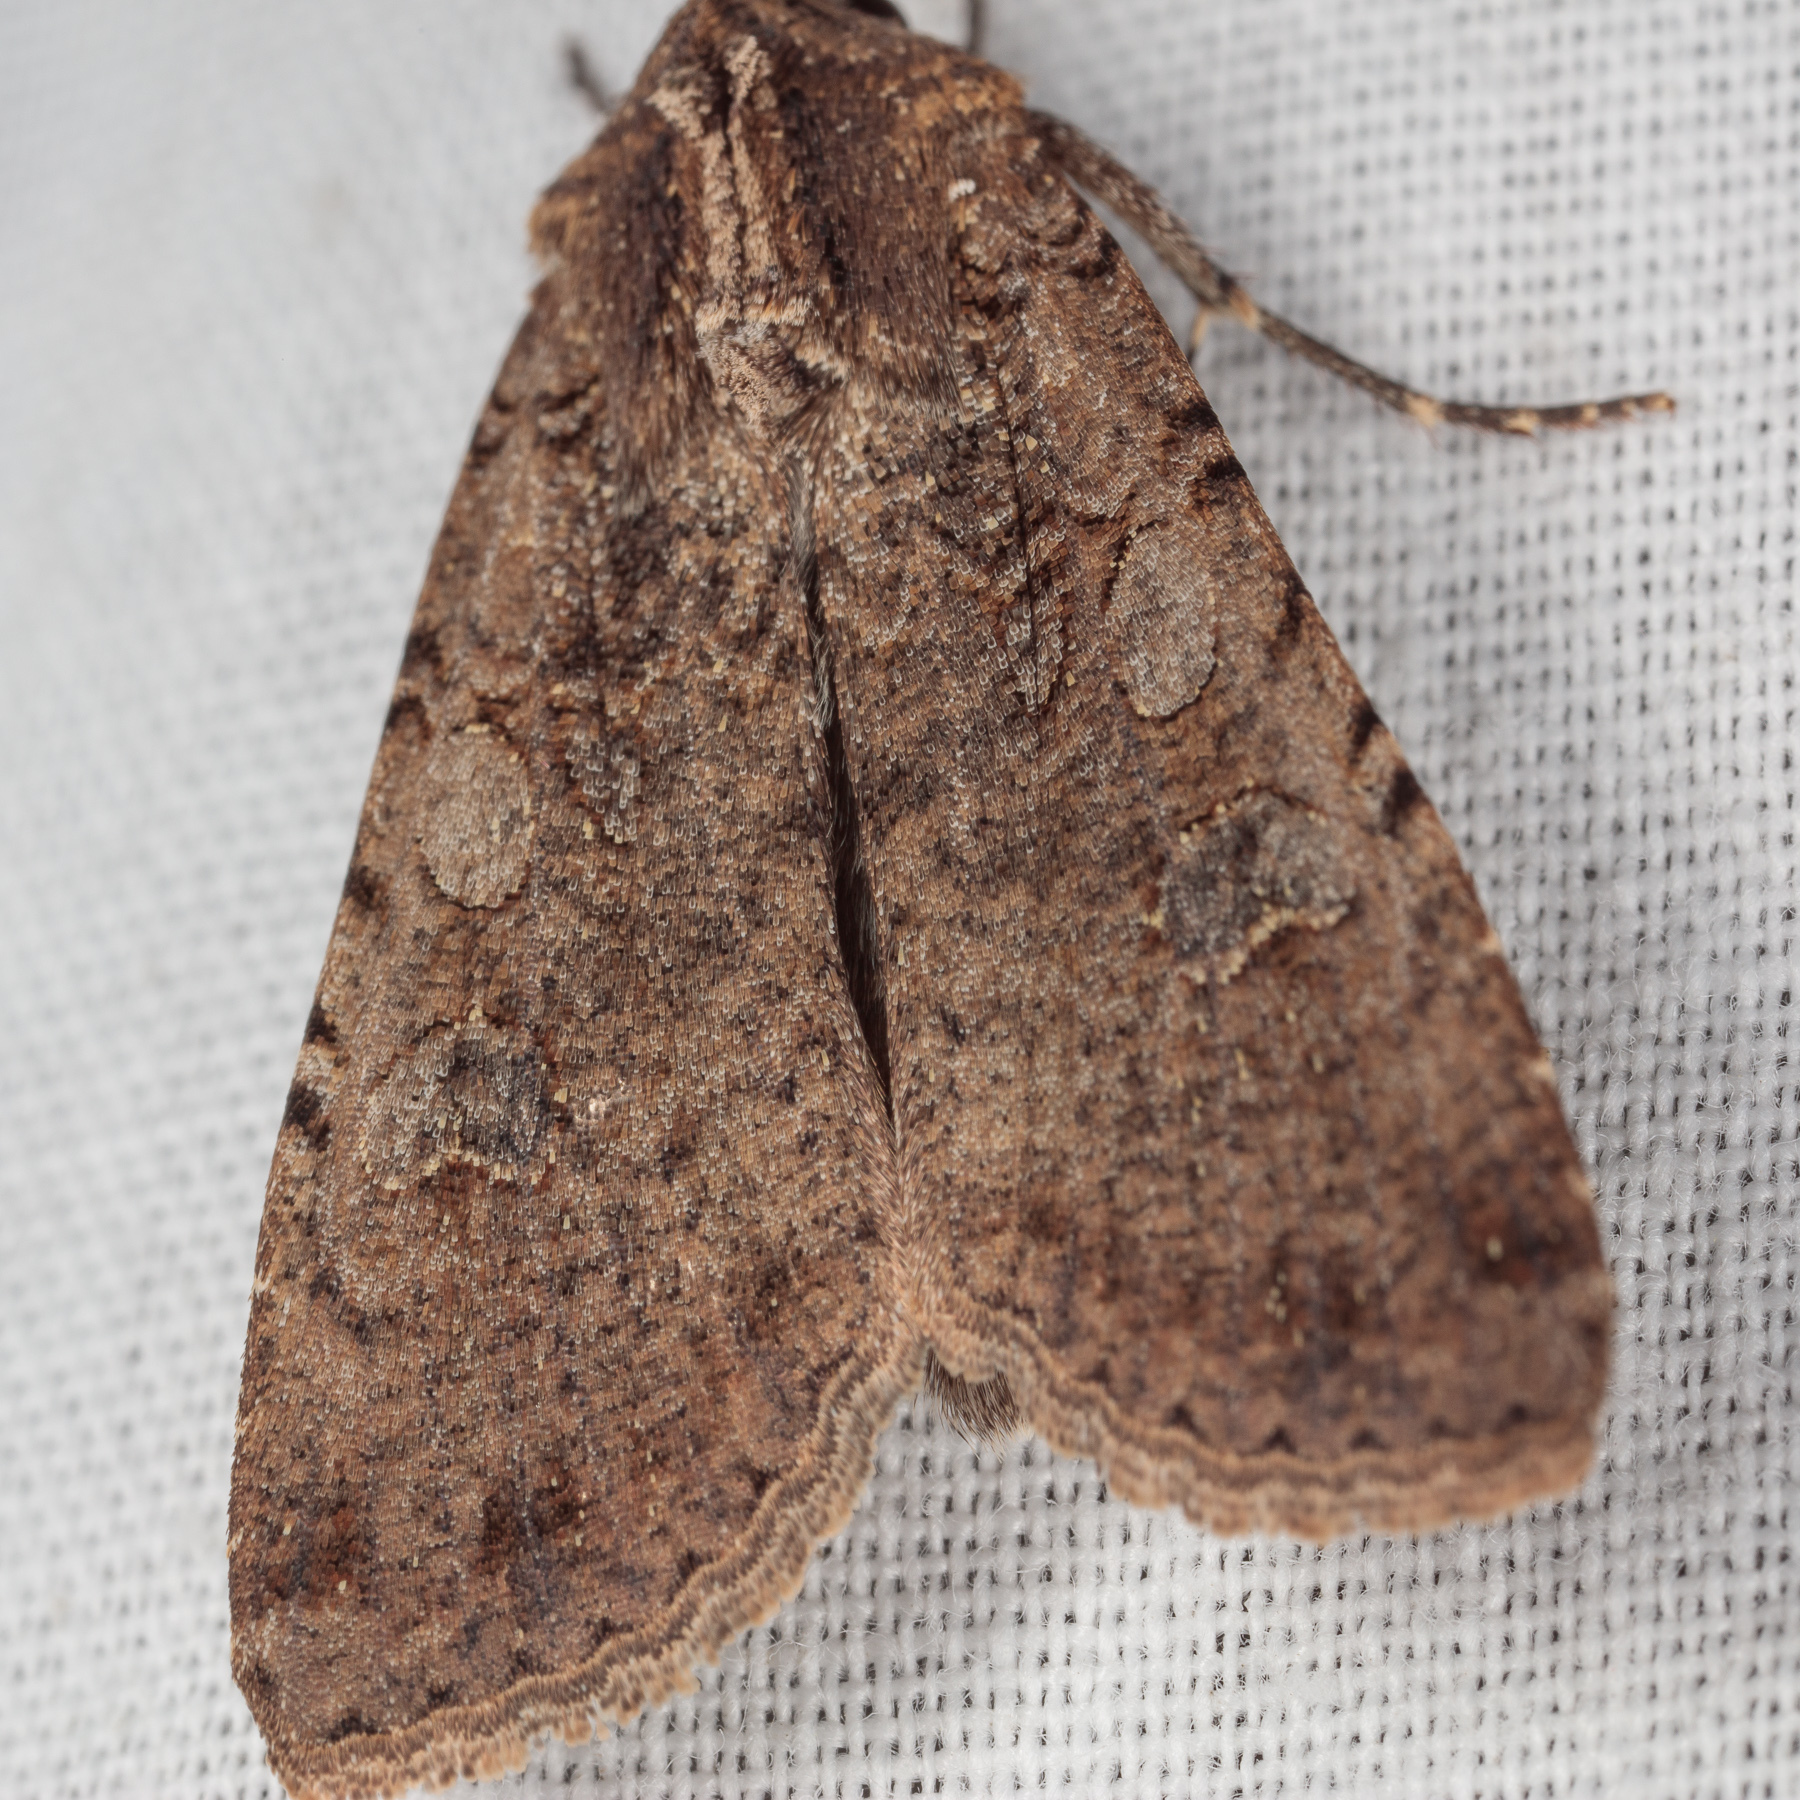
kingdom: Animalia
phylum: Arthropoda
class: Insecta
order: Lepidoptera
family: Noctuidae
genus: Peridroma
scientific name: Peridroma saucia
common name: Pearly underwing
